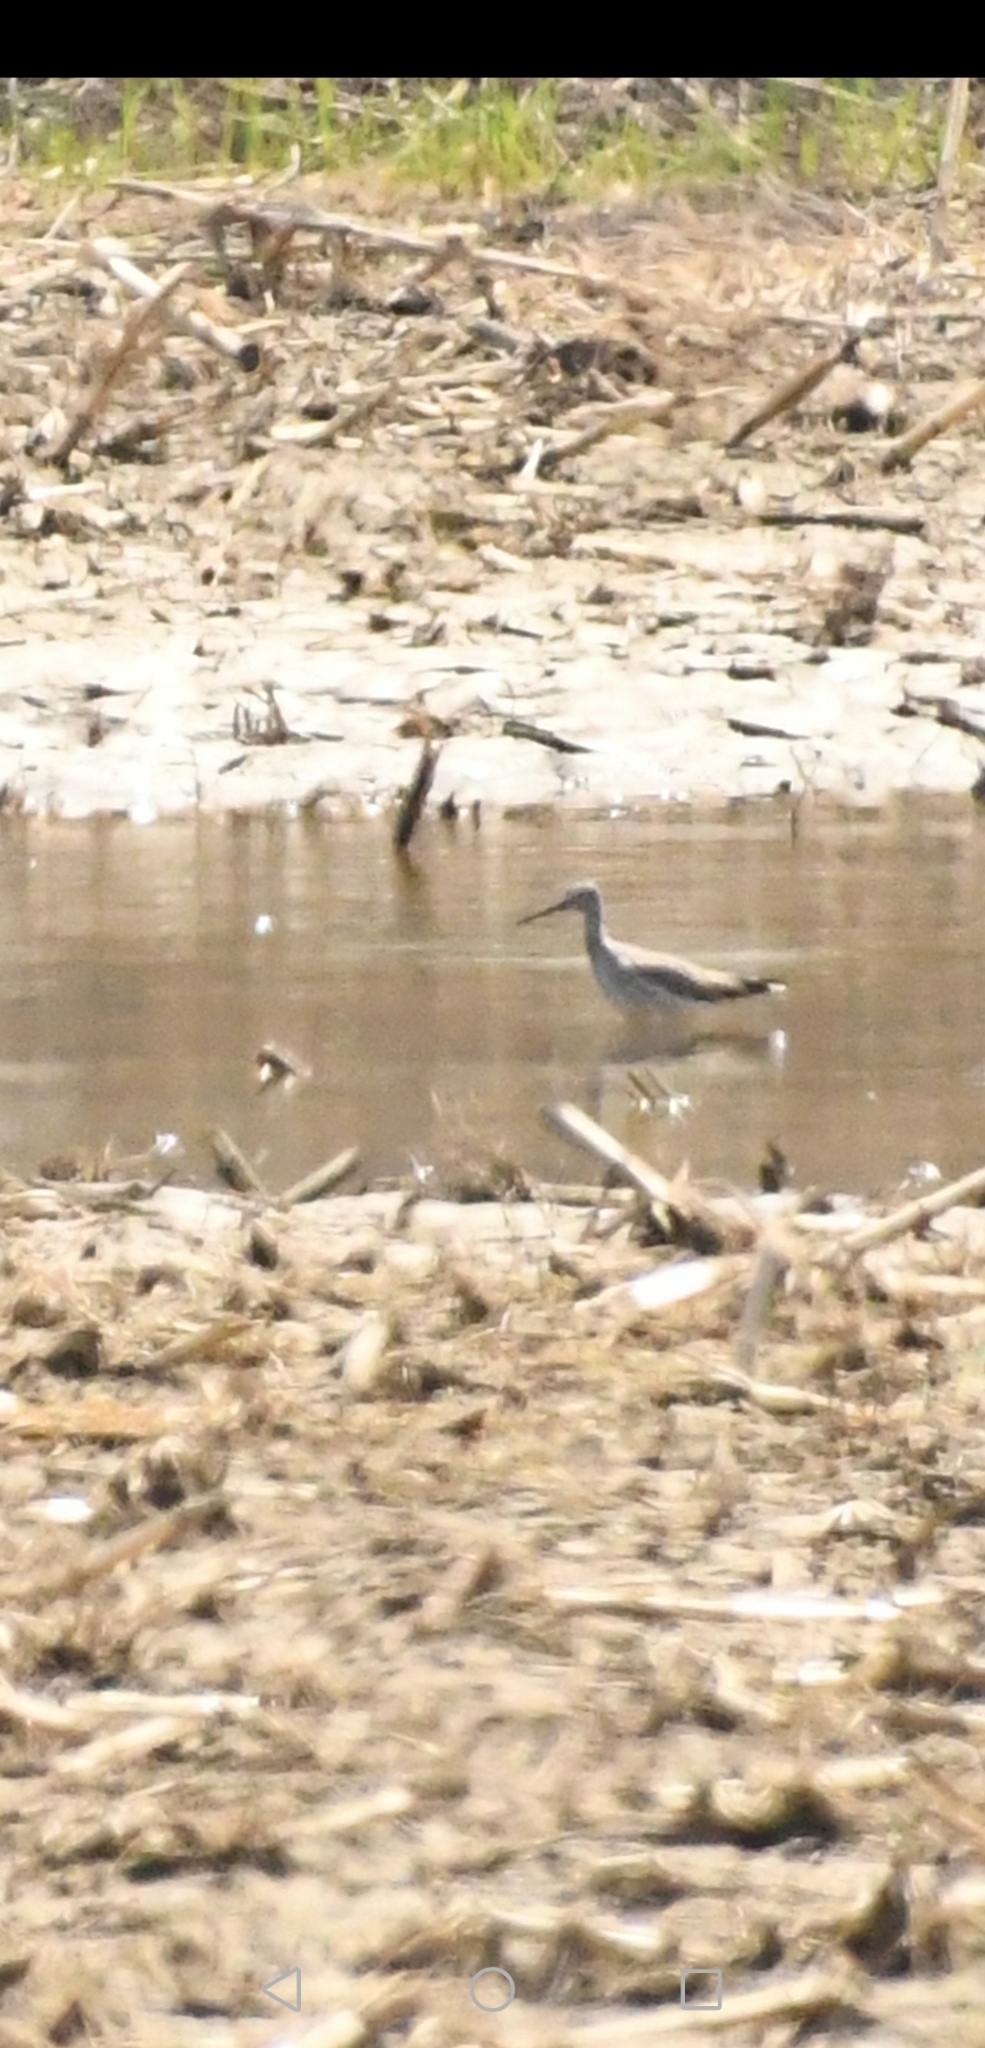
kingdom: Animalia
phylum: Chordata
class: Aves
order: Charadriiformes
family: Scolopacidae
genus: Tringa
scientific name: Tringa melanoleuca
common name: Greater yellowlegs
